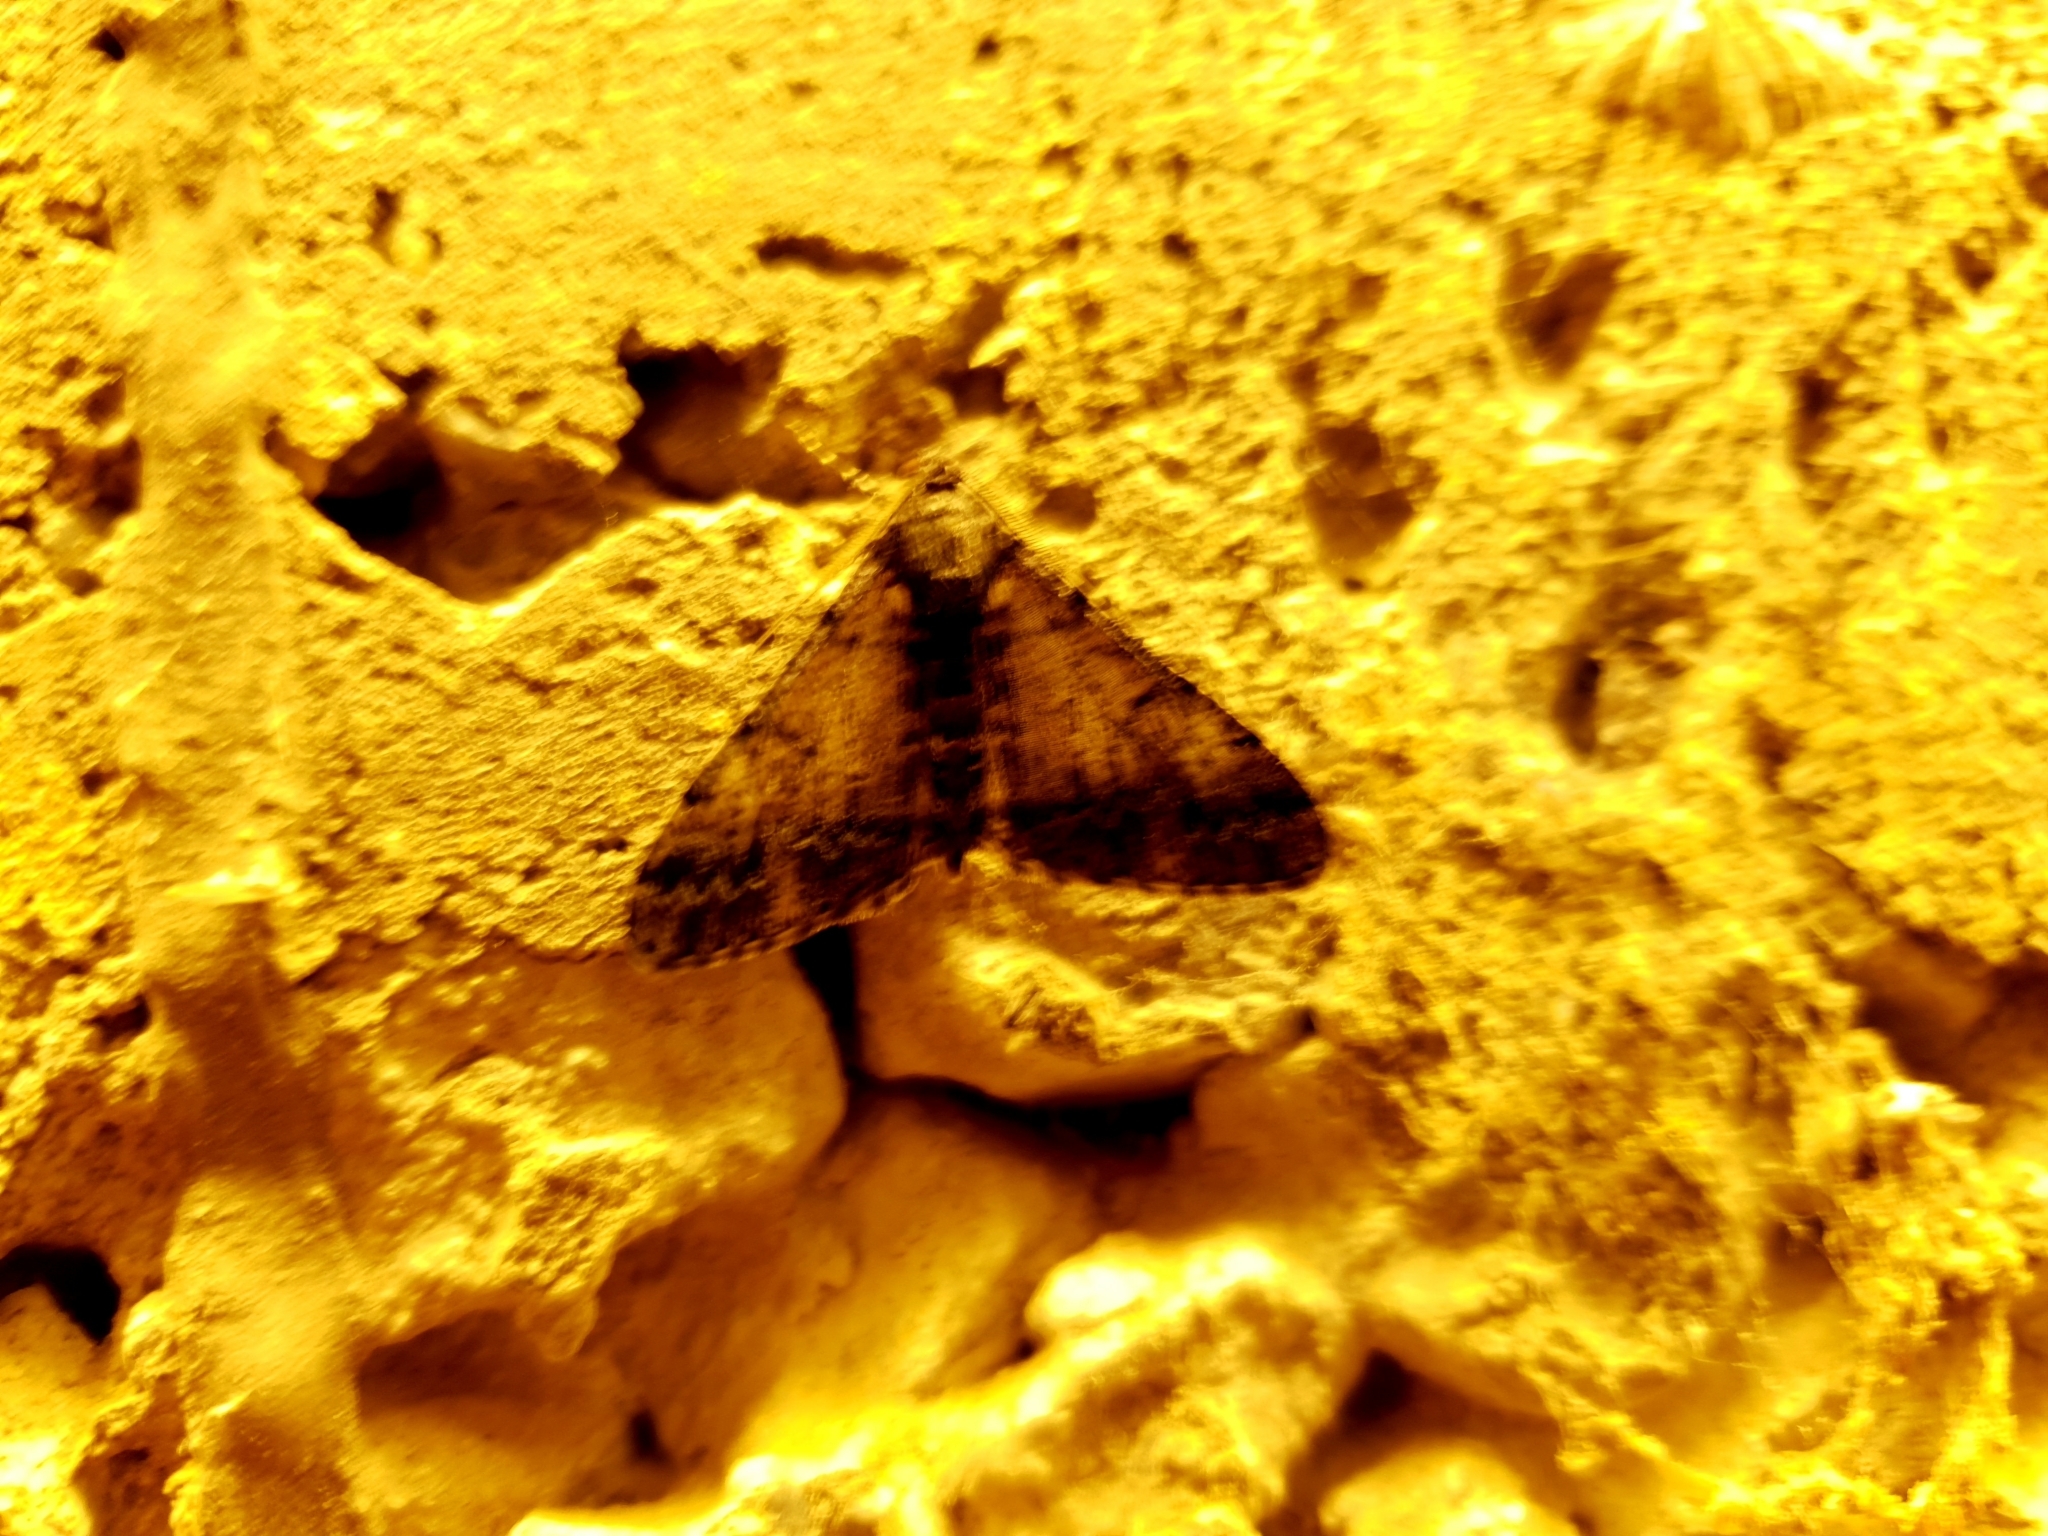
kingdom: Animalia
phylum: Arthropoda
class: Insecta
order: Lepidoptera
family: Geometridae
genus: Gasterocome
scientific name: Gasterocome pannosaria
